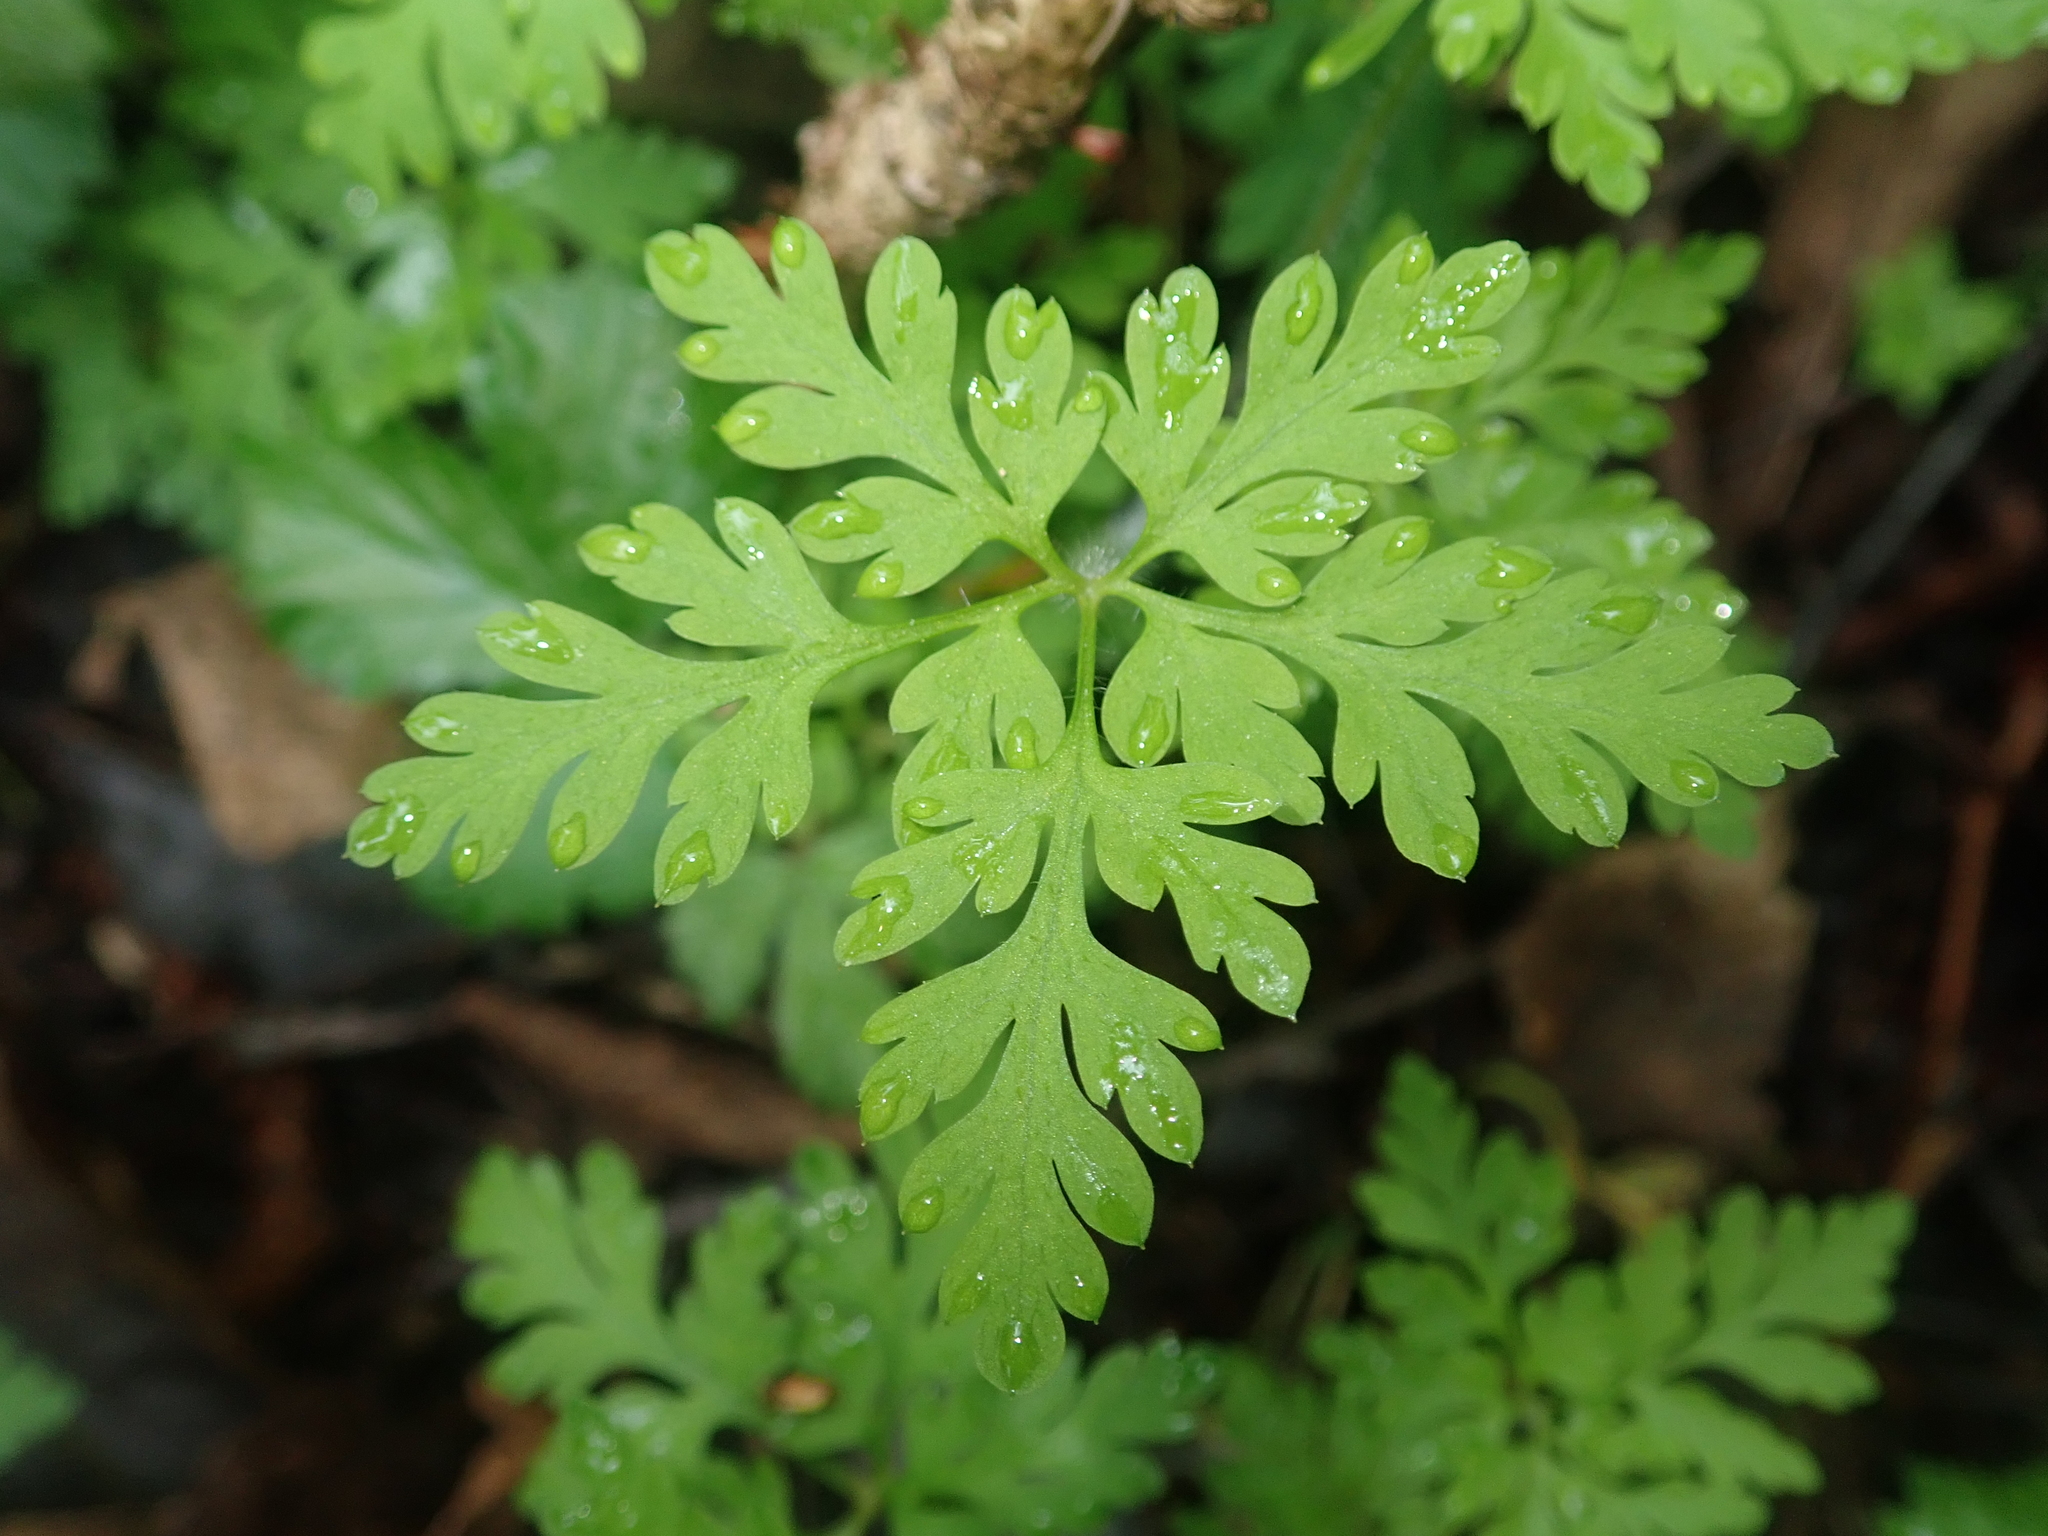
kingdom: Plantae
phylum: Tracheophyta
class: Magnoliopsida
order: Ranunculales
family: Papaveraceae
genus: Dicentra
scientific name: Dicentra formosa
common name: Bleeding-heart
